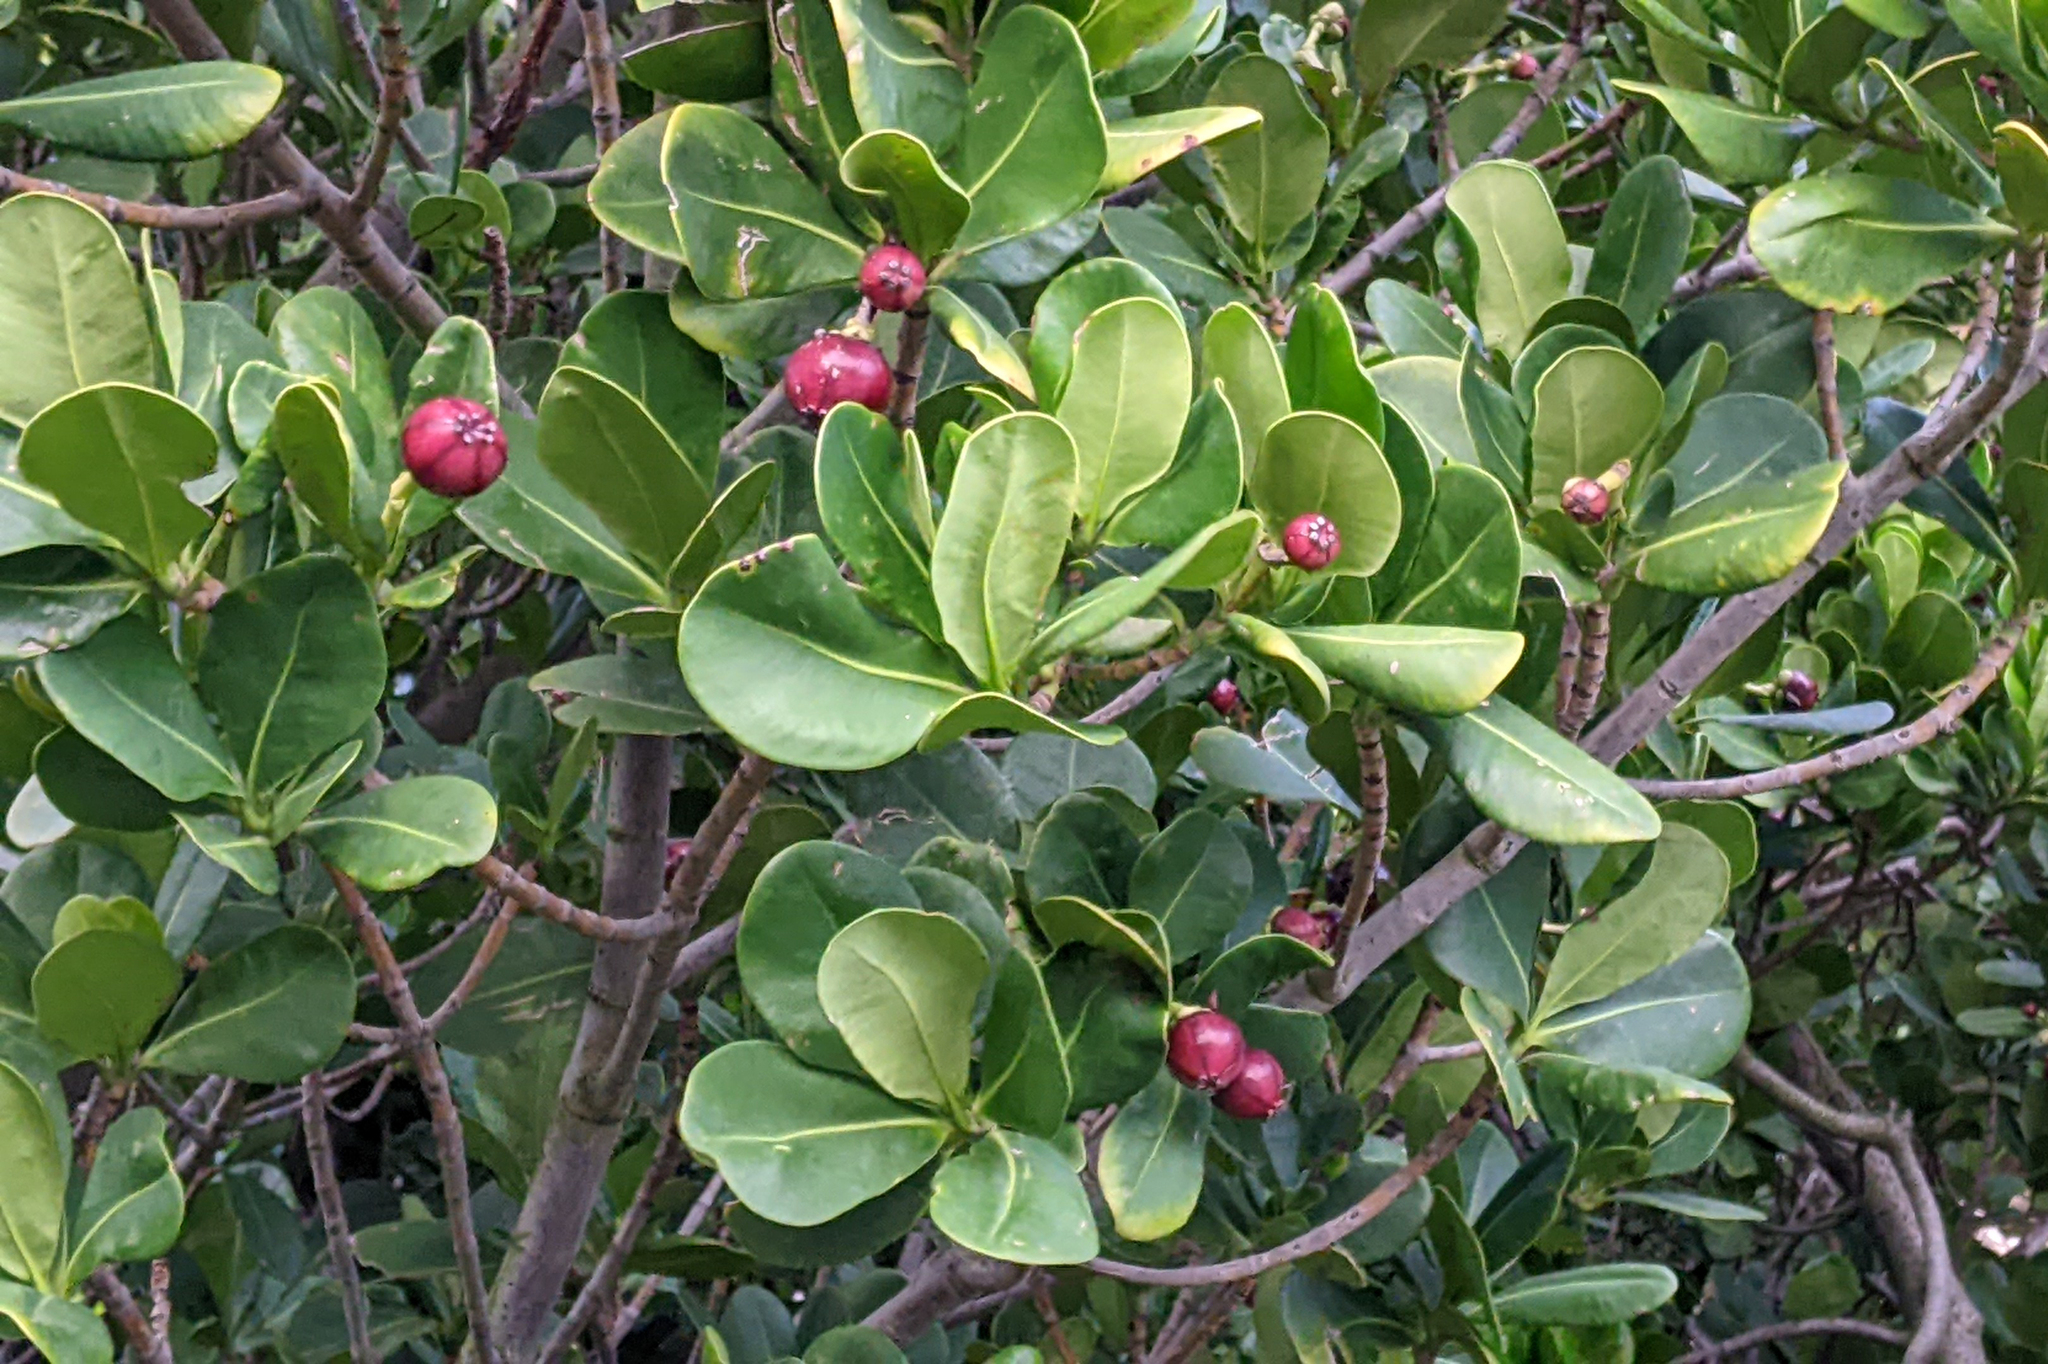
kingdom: Plantae
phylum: Tracheophyta
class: Magnoliopsida
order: Malpighiales
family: Clusiaceae
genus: Clusia
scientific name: Clusia plukenetii
